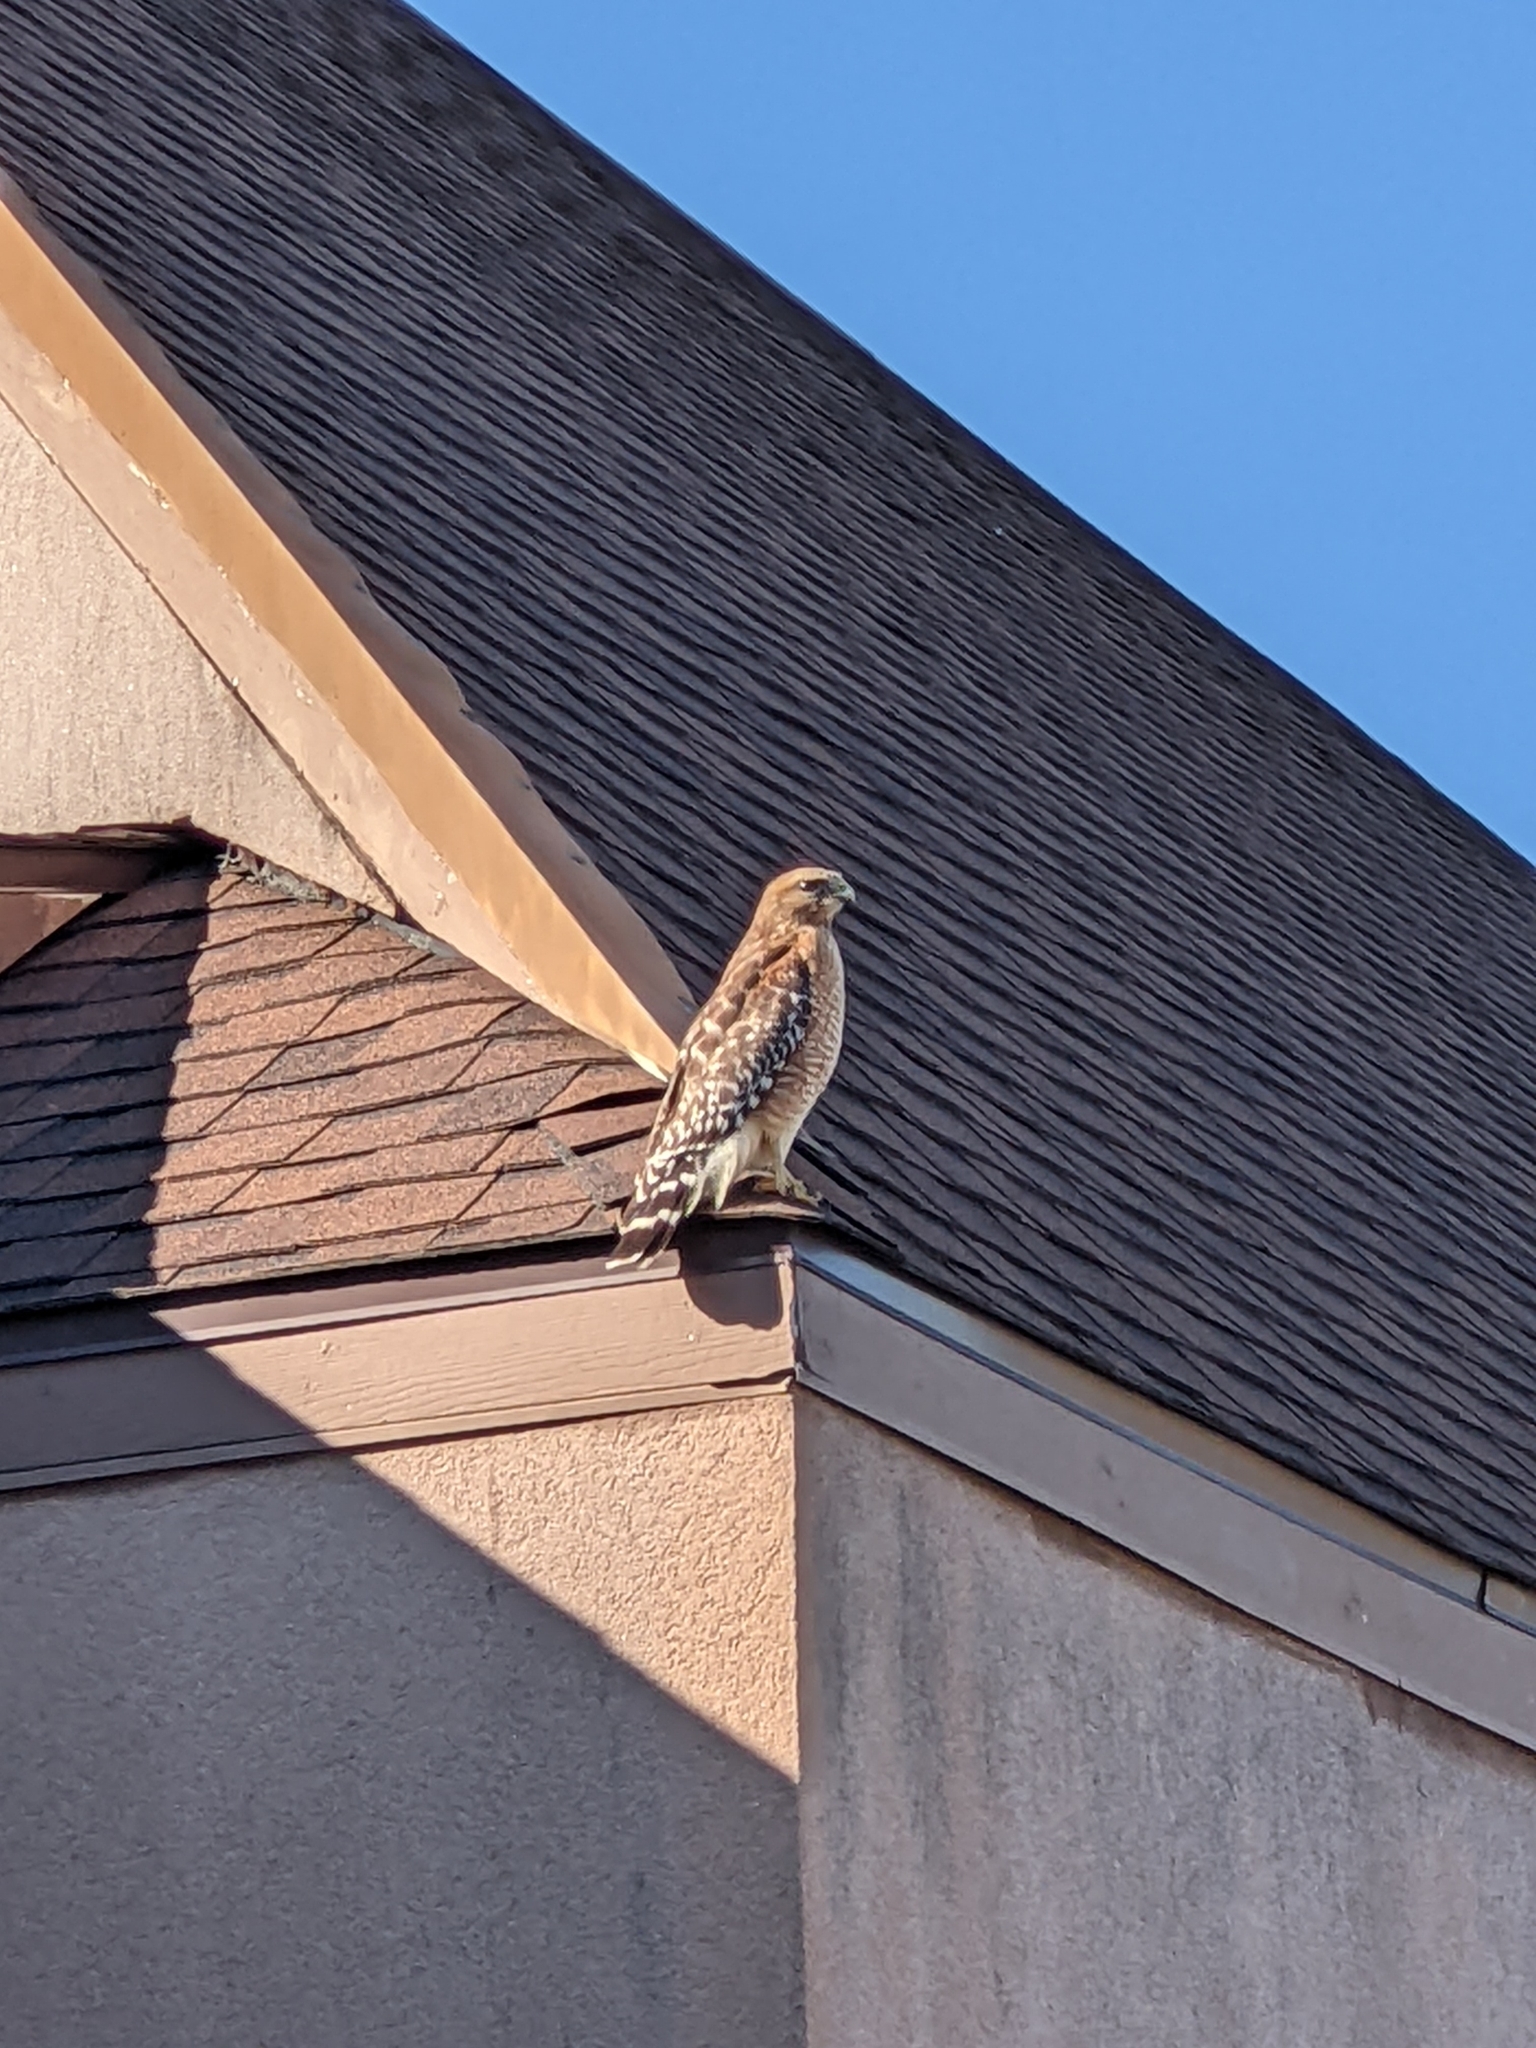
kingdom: Animalia
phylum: Chordata
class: Aves
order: Accipitriformes
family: Accipitridae
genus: Buteo
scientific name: Buteo lineatus
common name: Red-shouldered hawk
